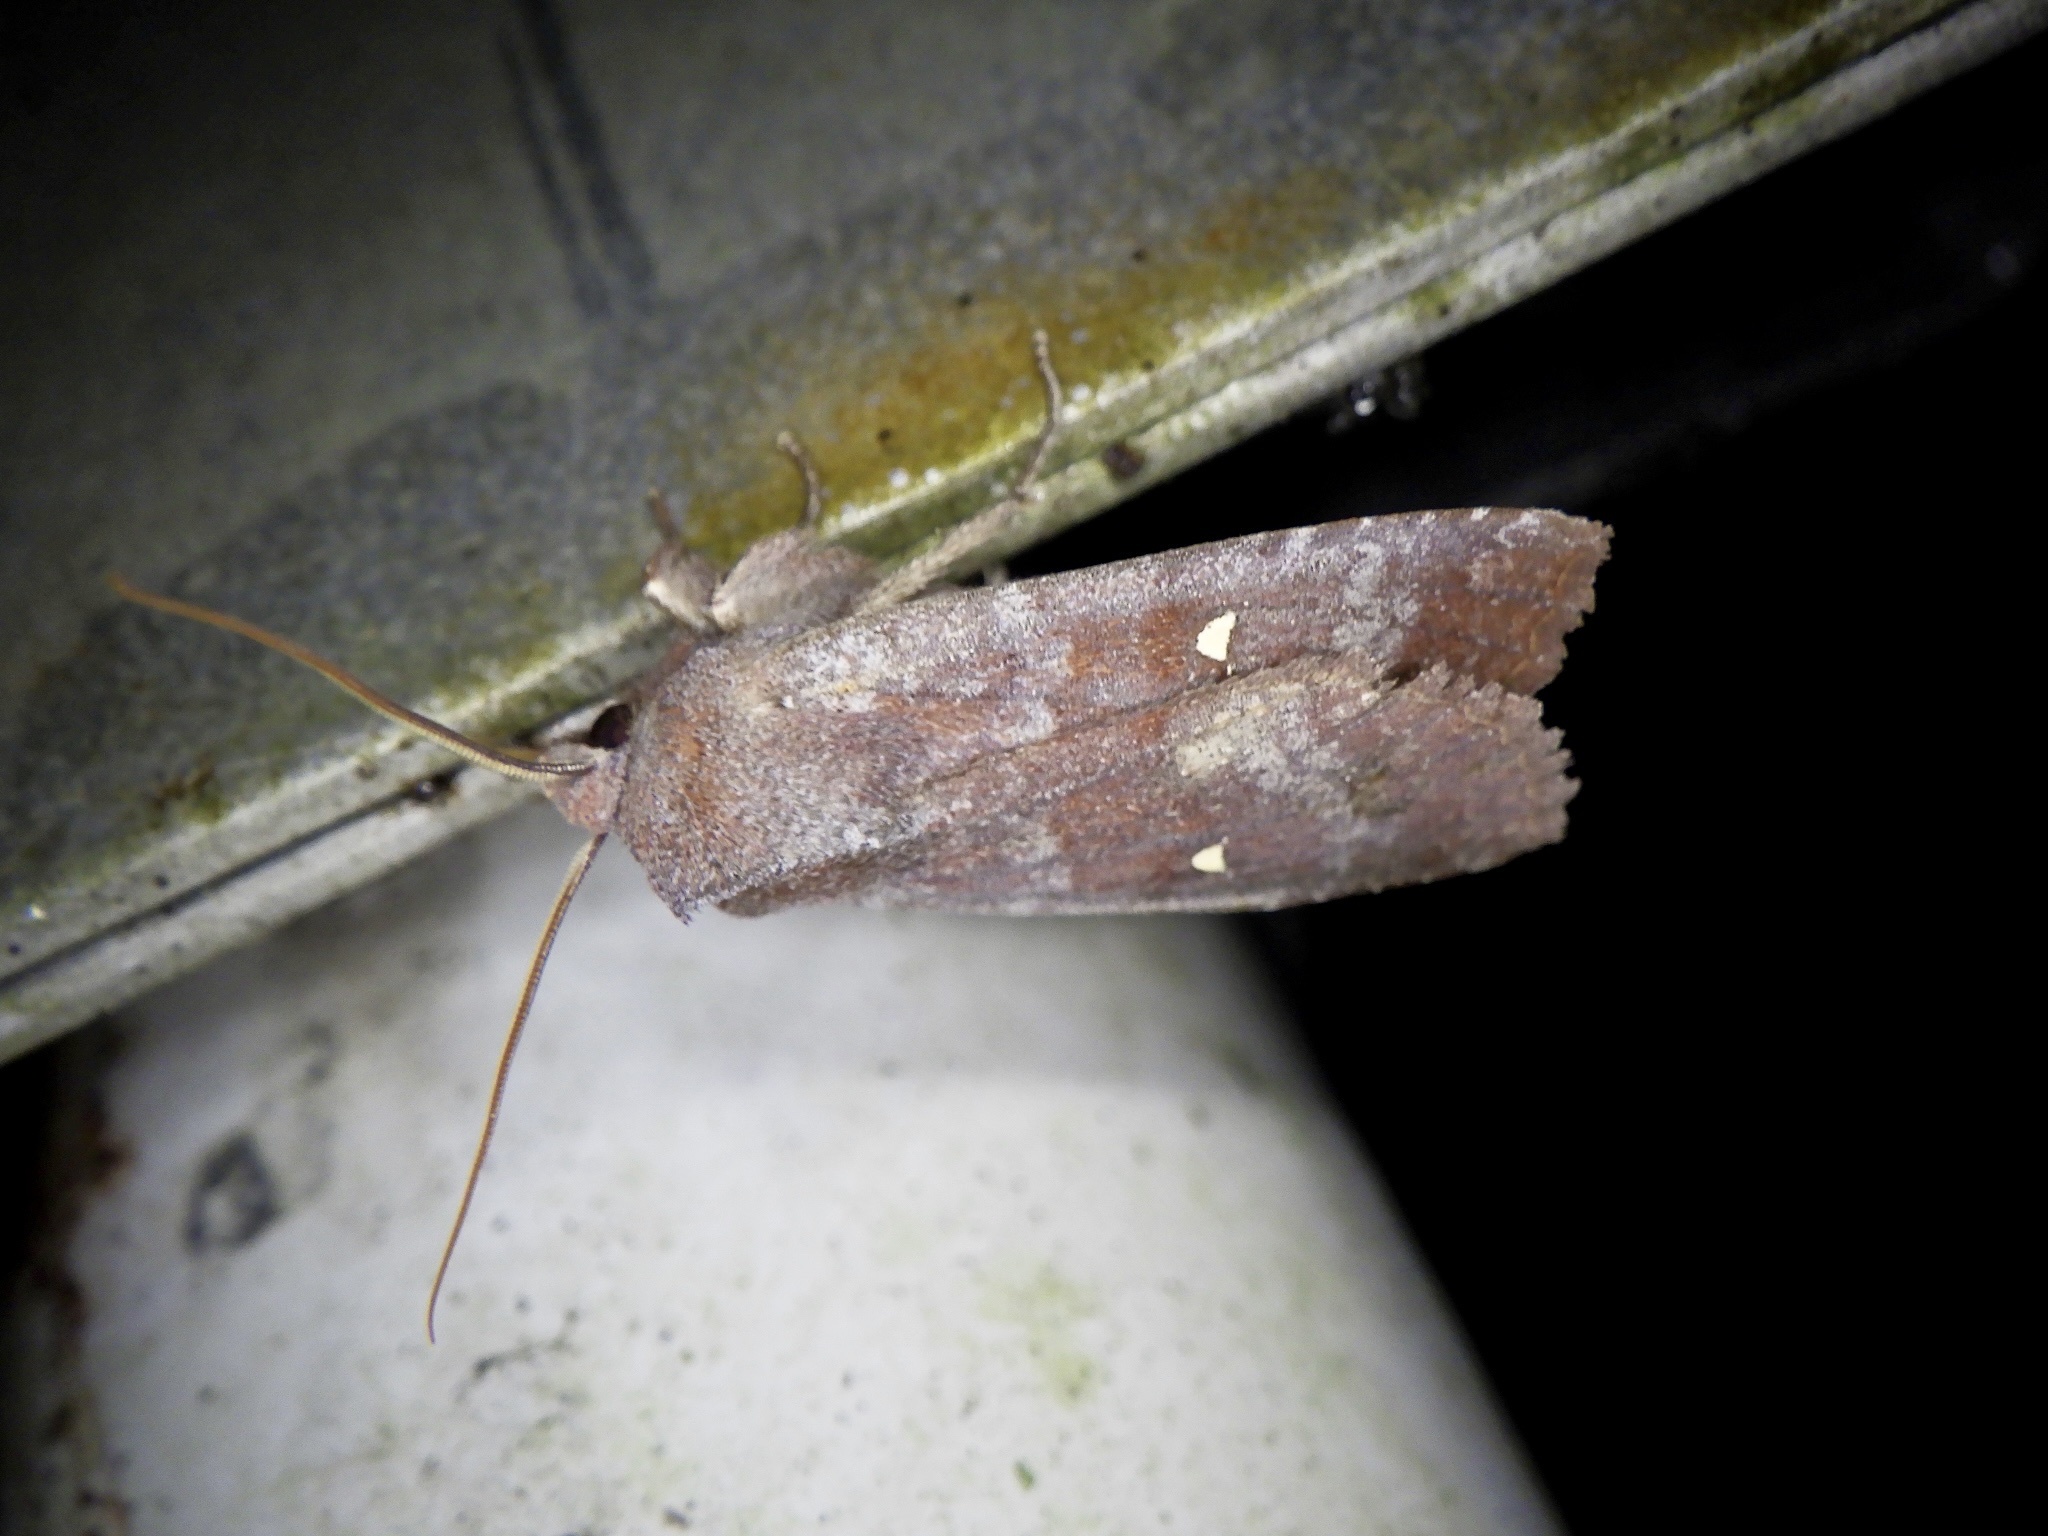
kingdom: Animalia
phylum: Arthropoda
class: Insecta
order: Lepidoptera
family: Noctuidae
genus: Eupsilia
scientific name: Eupsilia unipuncta
